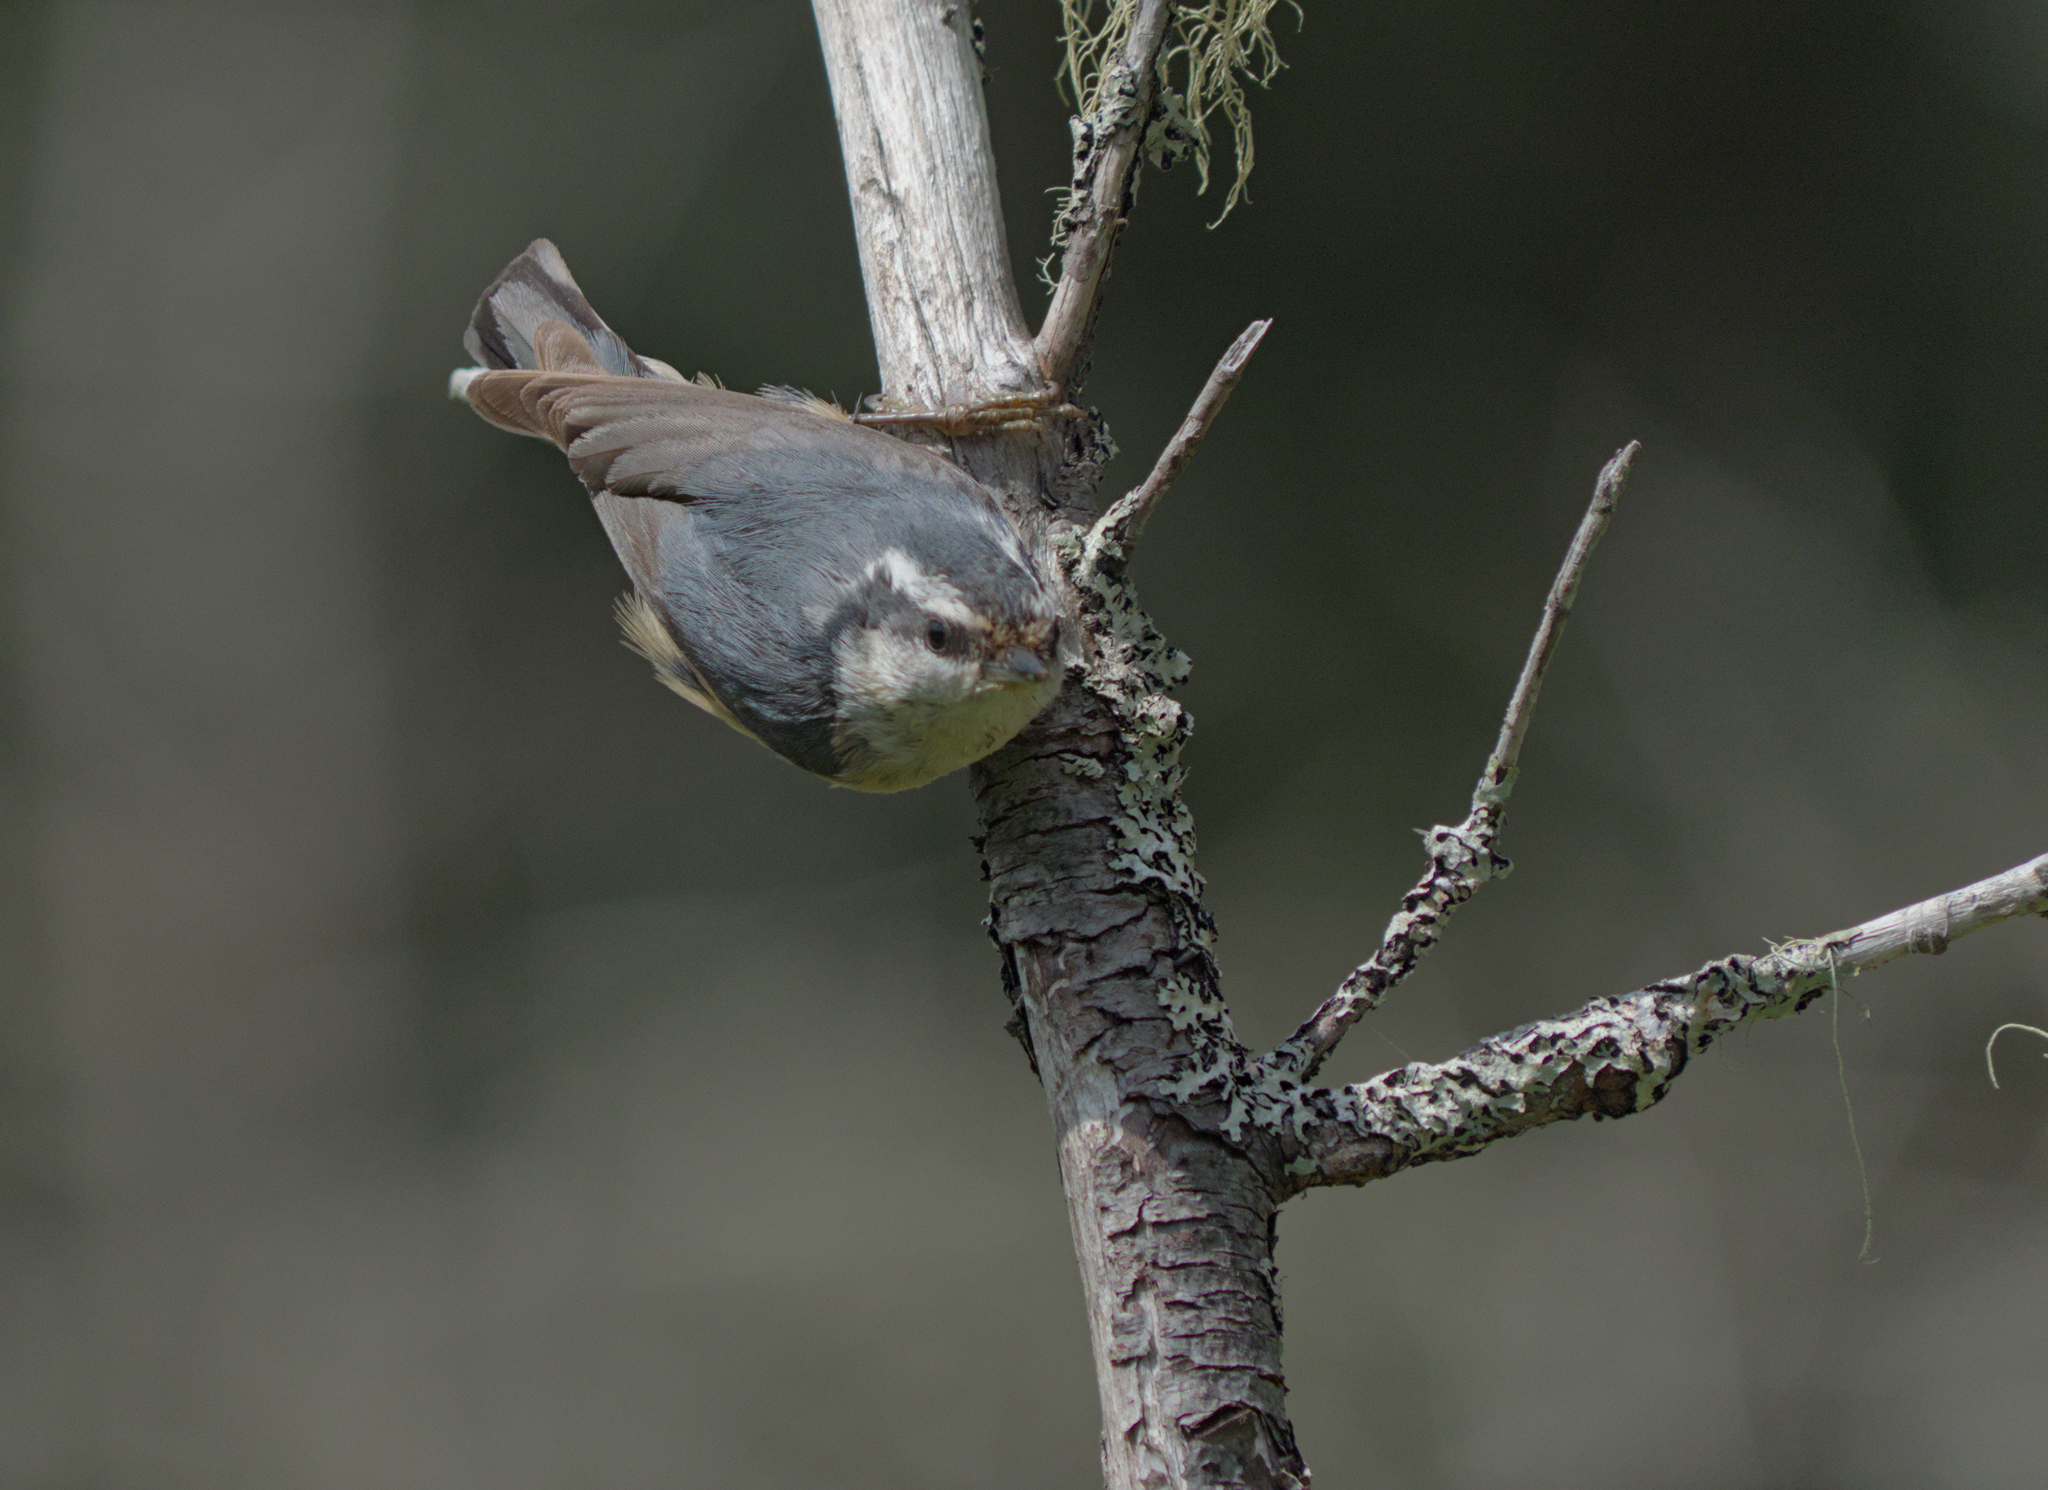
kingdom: Animalia
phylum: Chordata
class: Aves
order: Passeriformes
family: Sittidae
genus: Sitta
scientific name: Sitta canadensis
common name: Red-breasted nuthatch
